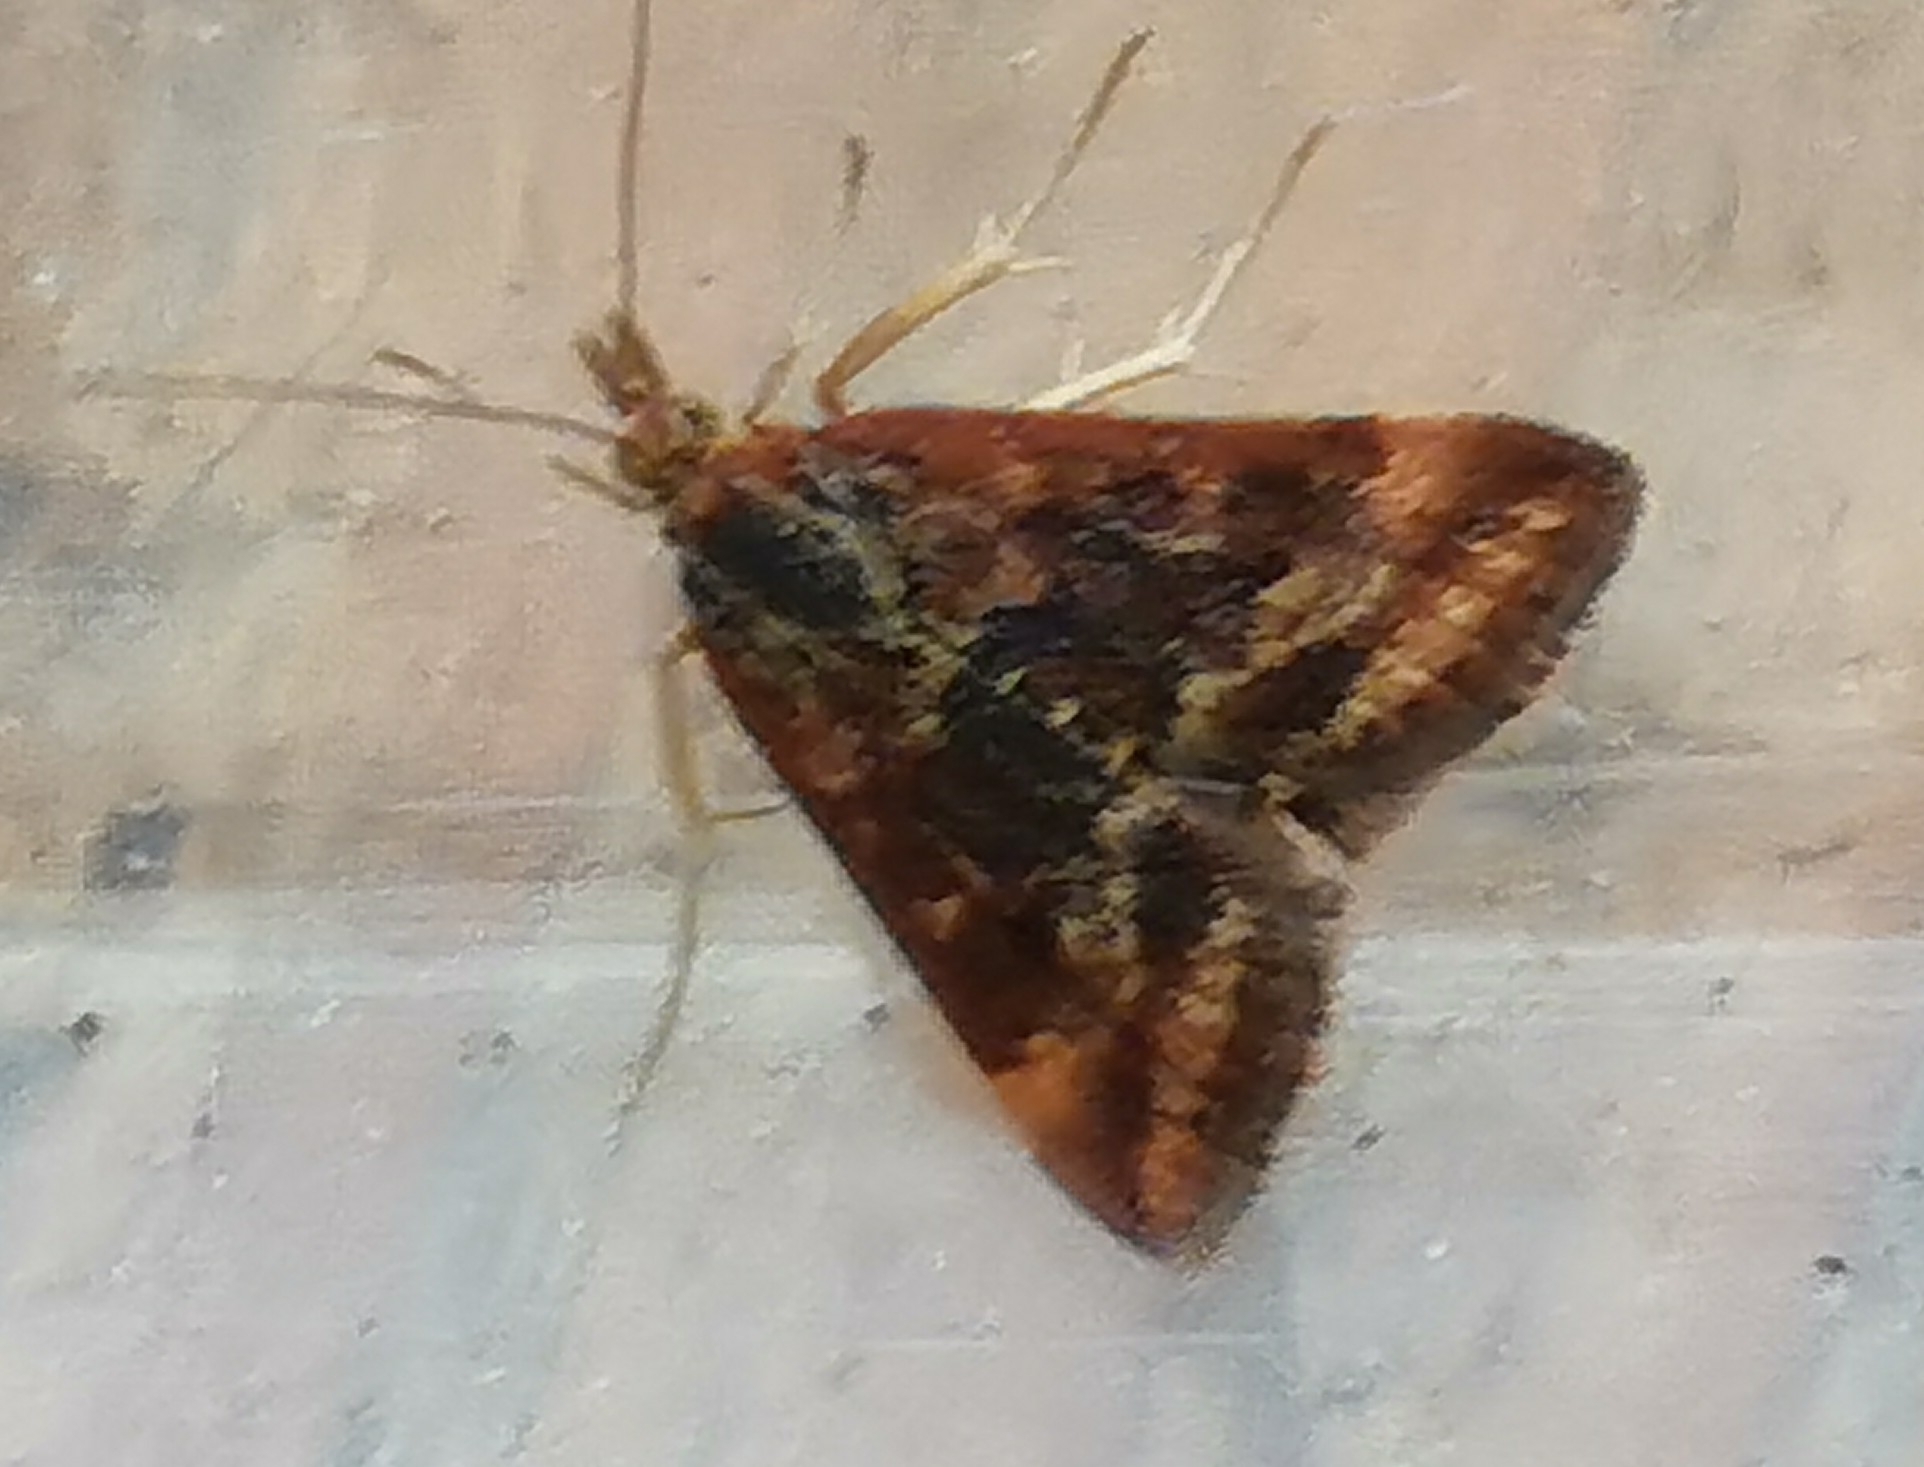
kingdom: Animalia
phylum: Arthropoda
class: Insecta
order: Lepidoptera
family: Crambidae
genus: Pyrausta
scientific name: Pyrausta despicata
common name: Straw-barred pearl
